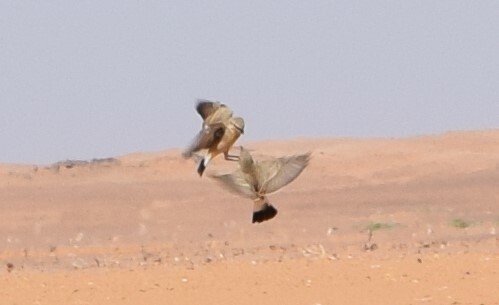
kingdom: Animalia
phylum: Chordata
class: Aves
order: Passeriformes
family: Muscicapidae
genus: Oenanthe
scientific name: Oenanthe isabellina
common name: Isabelline wheatear
